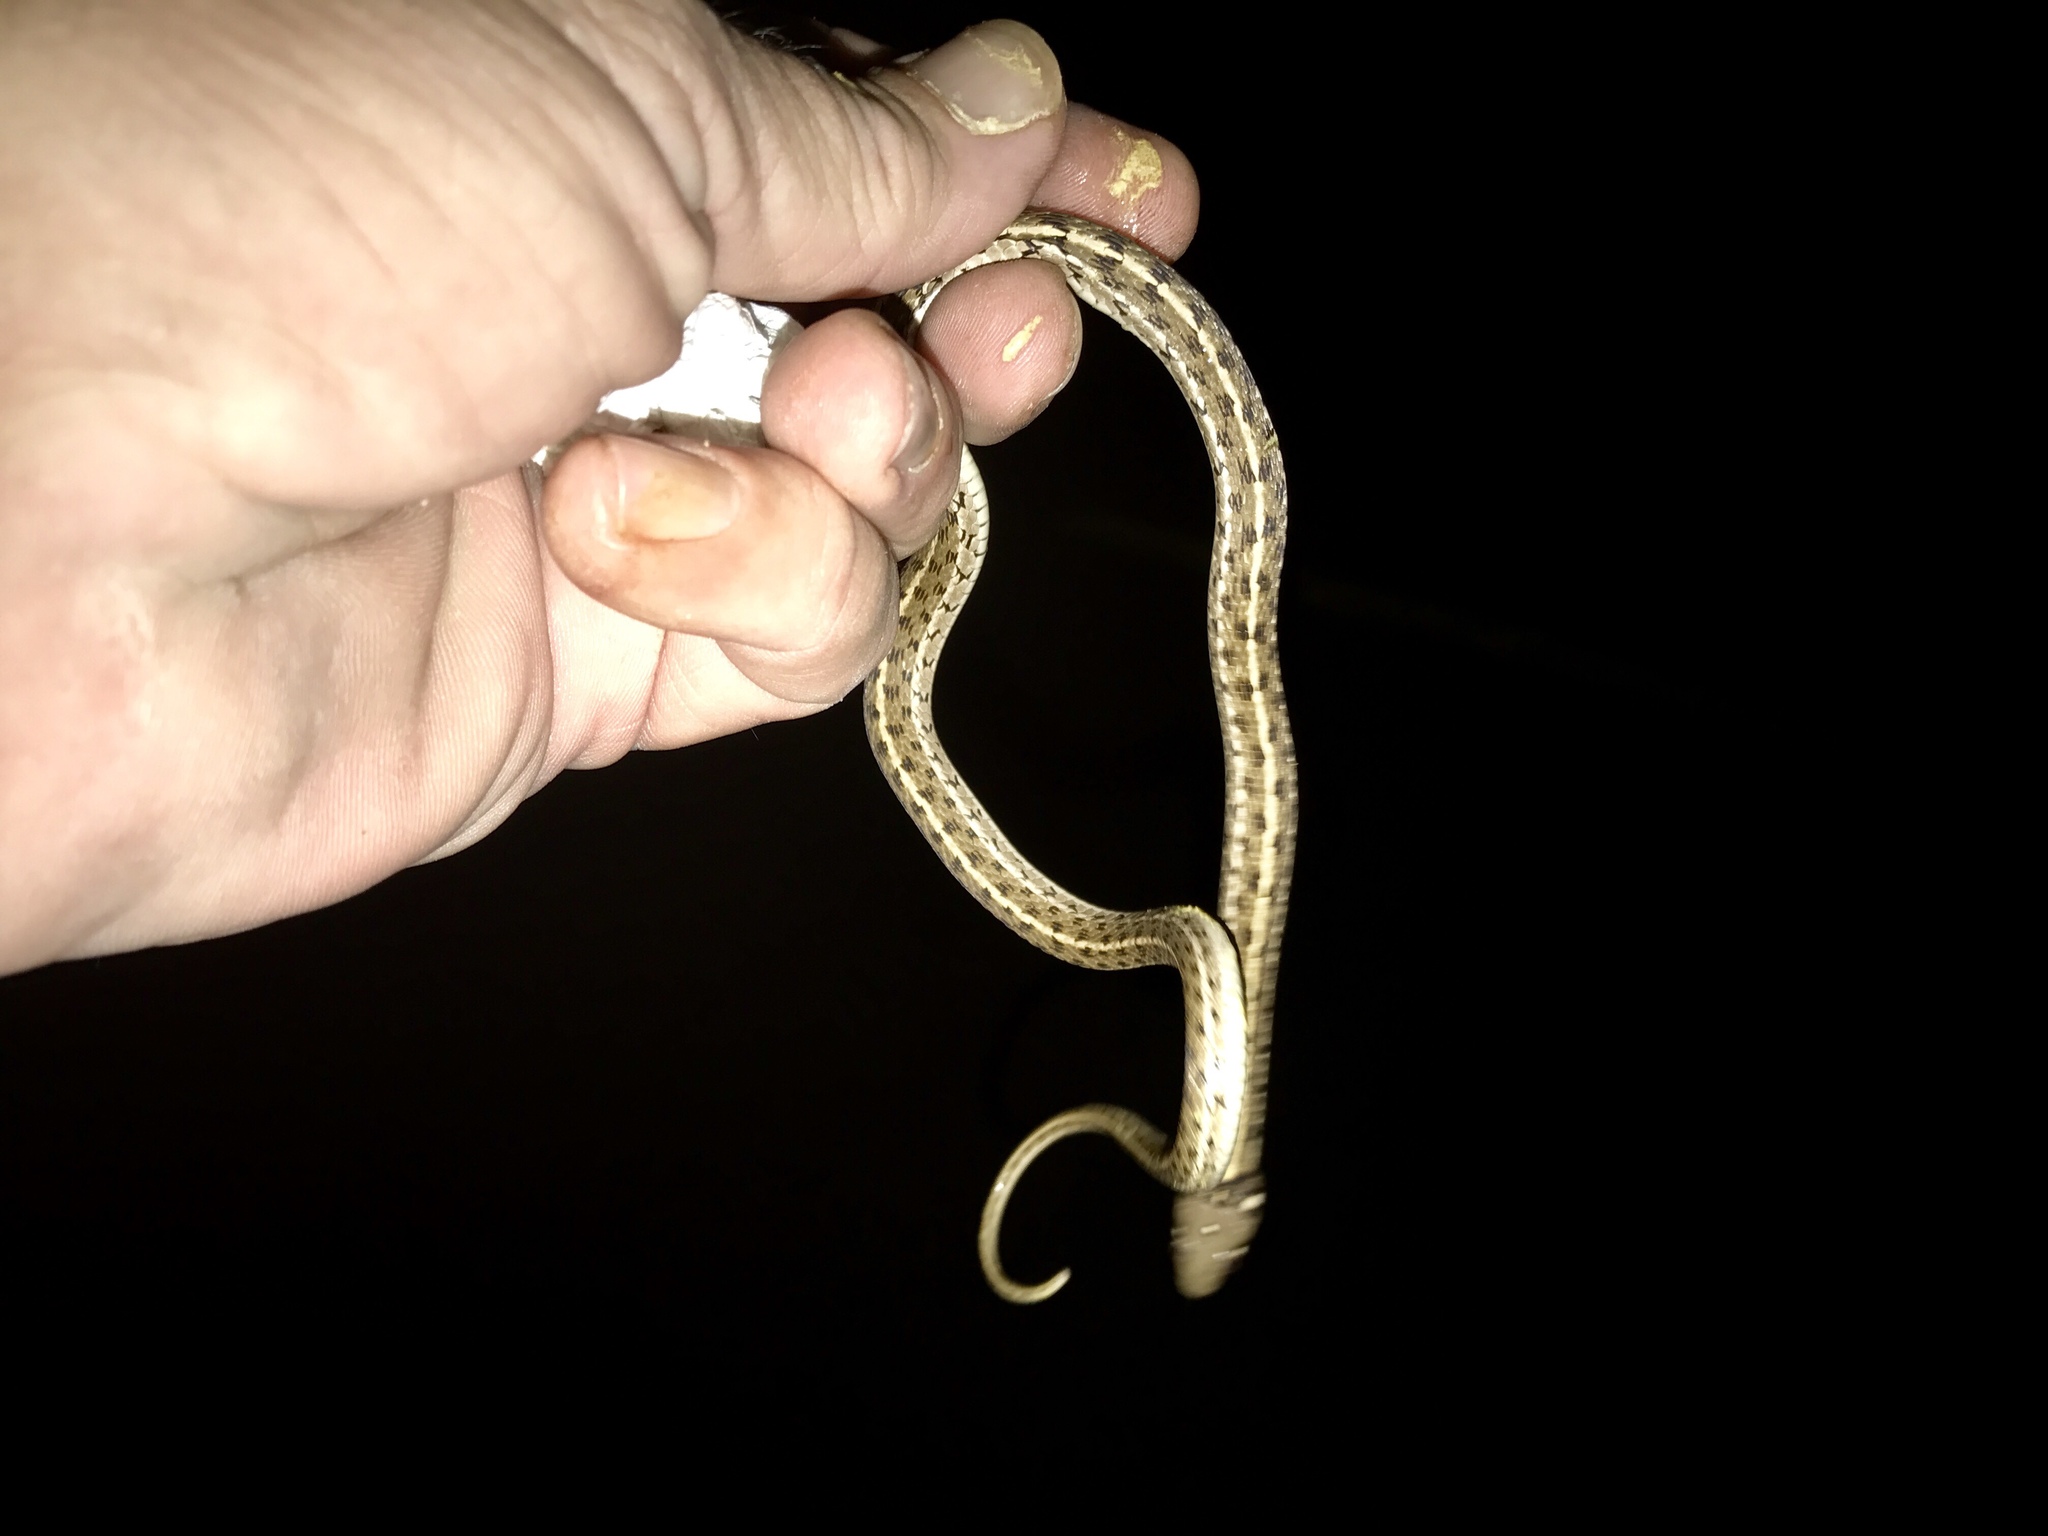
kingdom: Animalia
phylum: Chordata
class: Squamata
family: Colubridae
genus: Thamnophis
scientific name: Thamnophis marcianus
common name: Checkered garter snake
